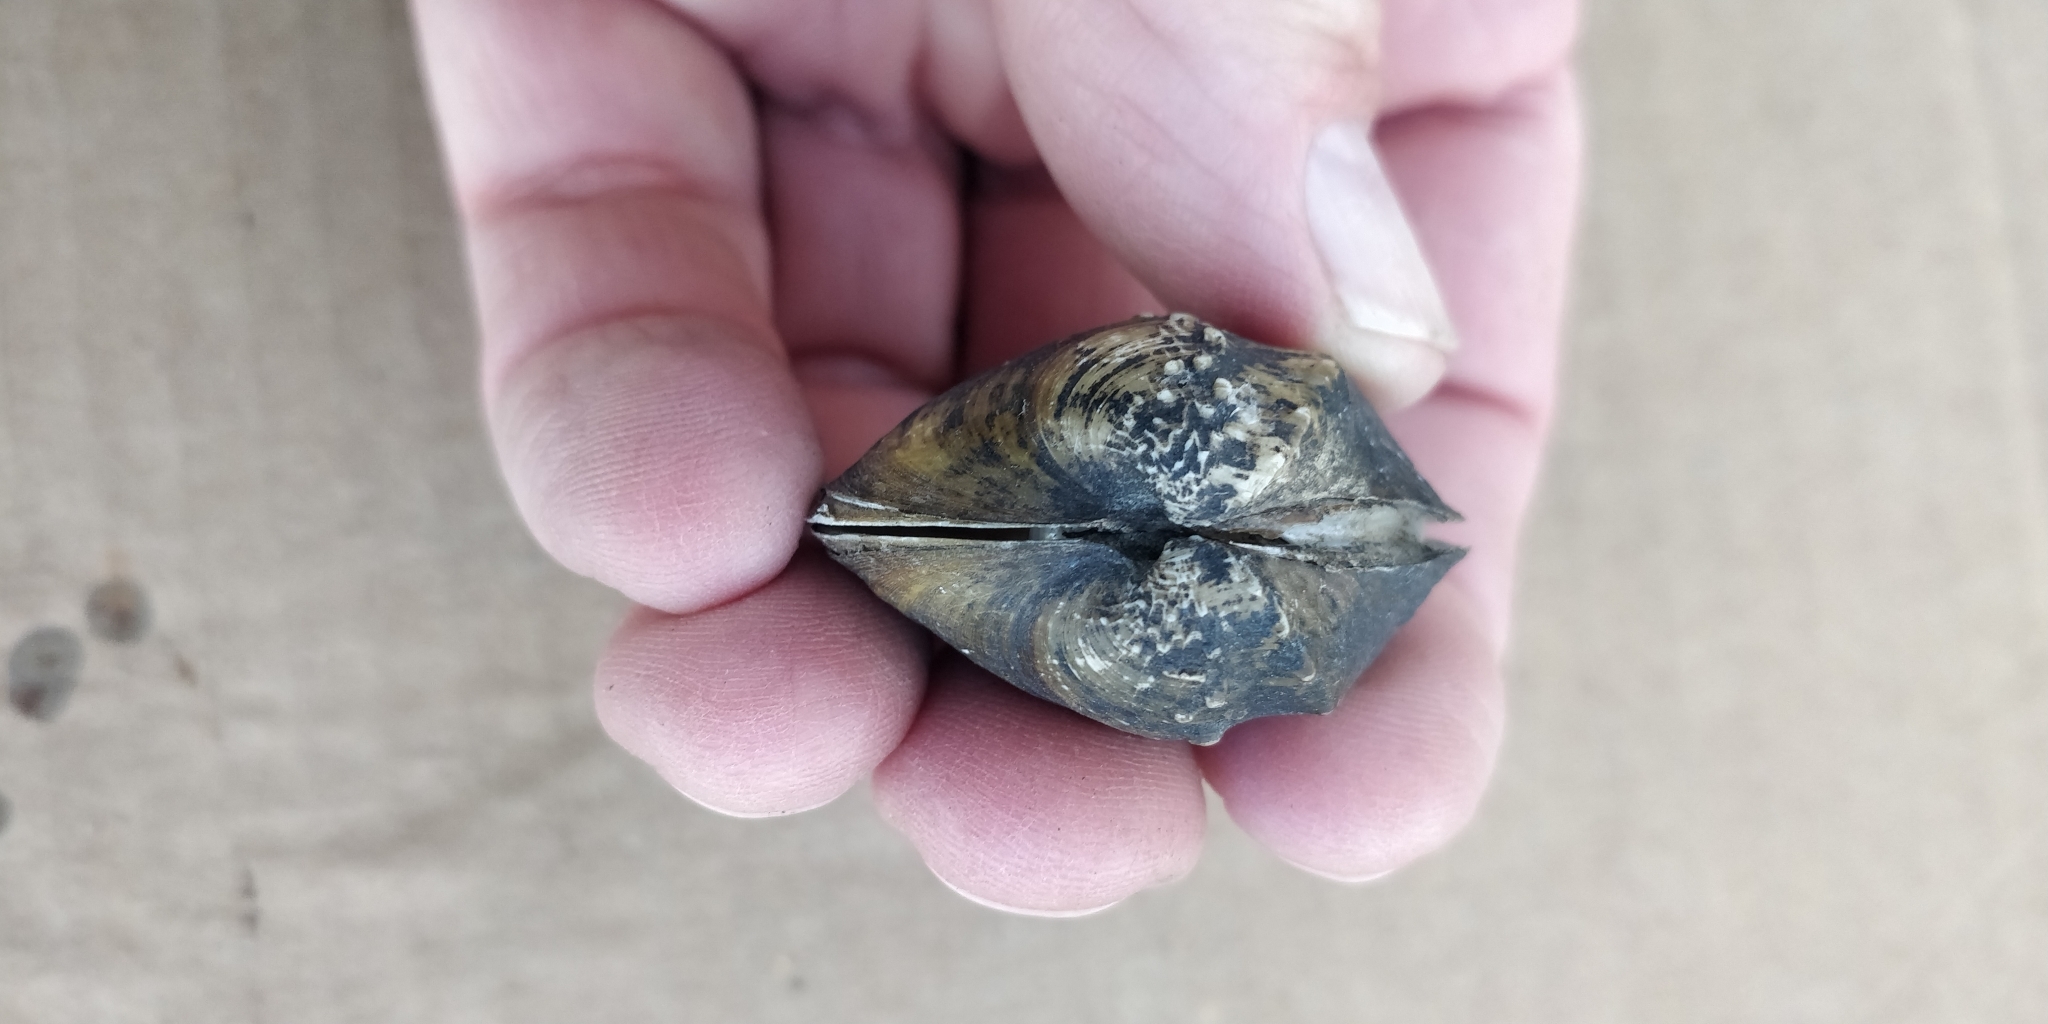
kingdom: Animalia
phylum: Mollusca
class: Bivalvia
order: Unionida
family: Unionidae
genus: Quadrula
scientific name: Quadrula quadrula
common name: Mapleleaf
